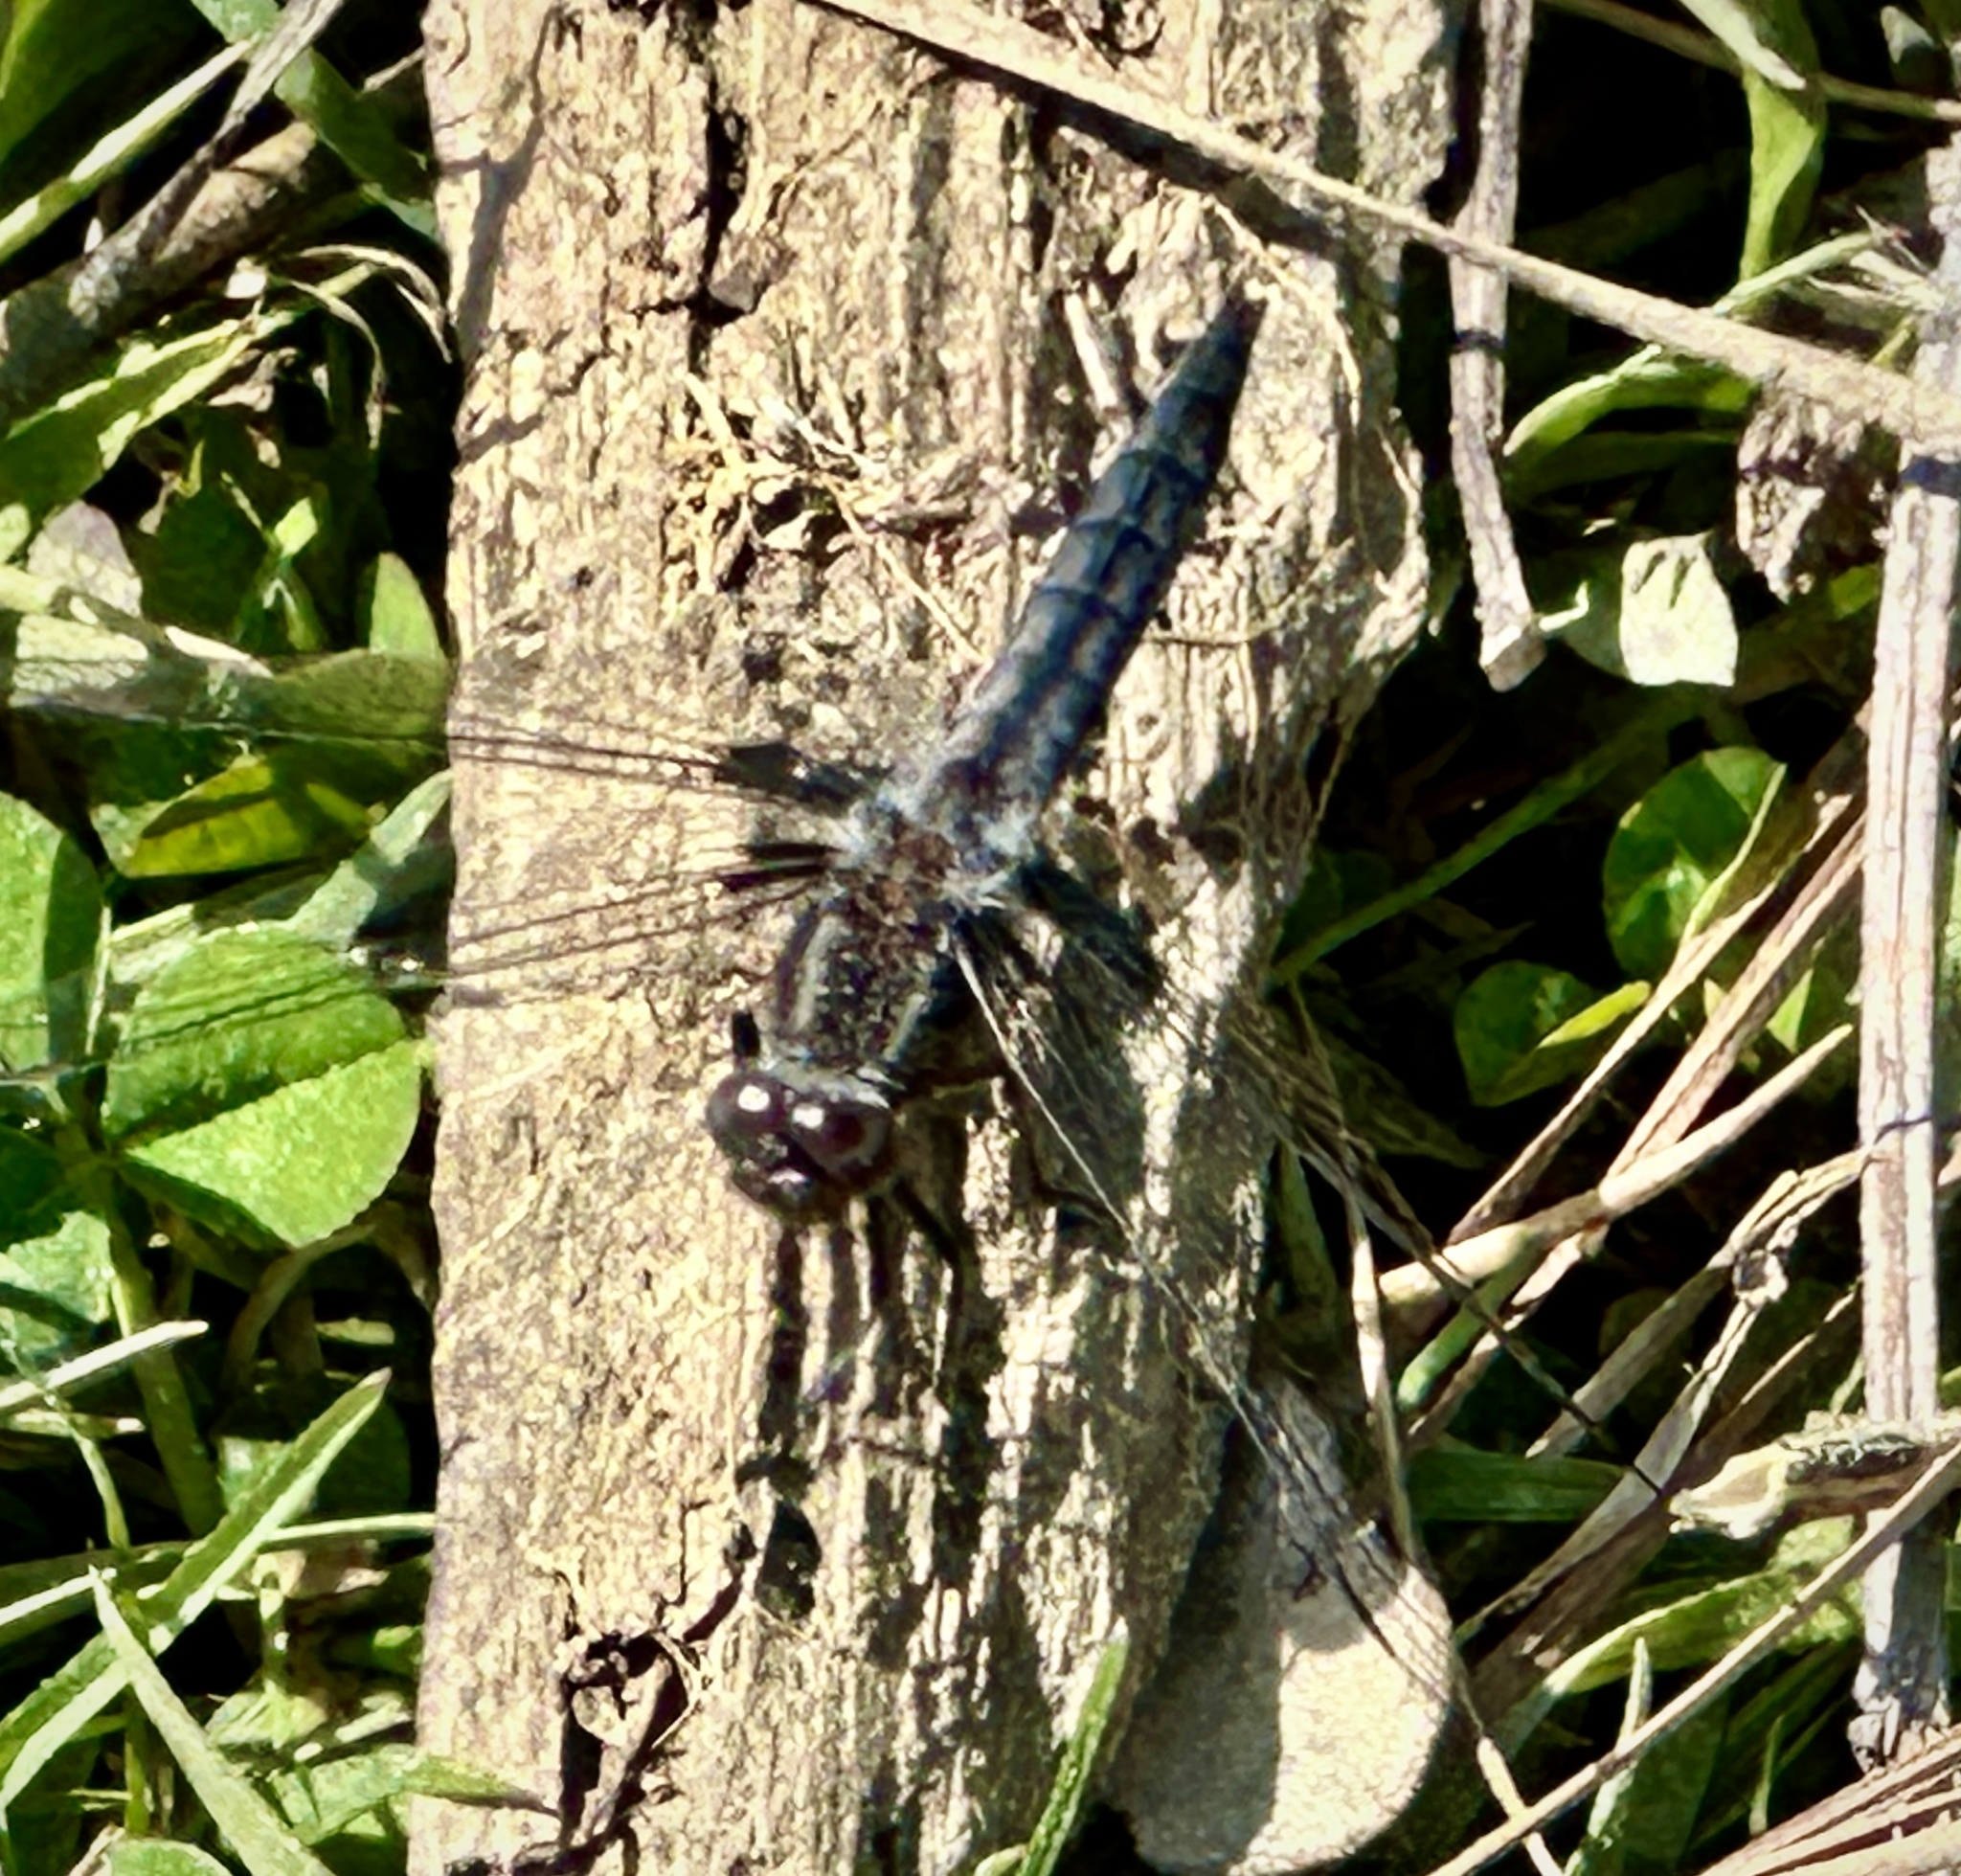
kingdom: Animalia
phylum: Arthropoda
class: Insecta
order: Odonata
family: Libellulidae
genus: Ladona
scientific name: Ladona deplanata
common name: Blue corporal
